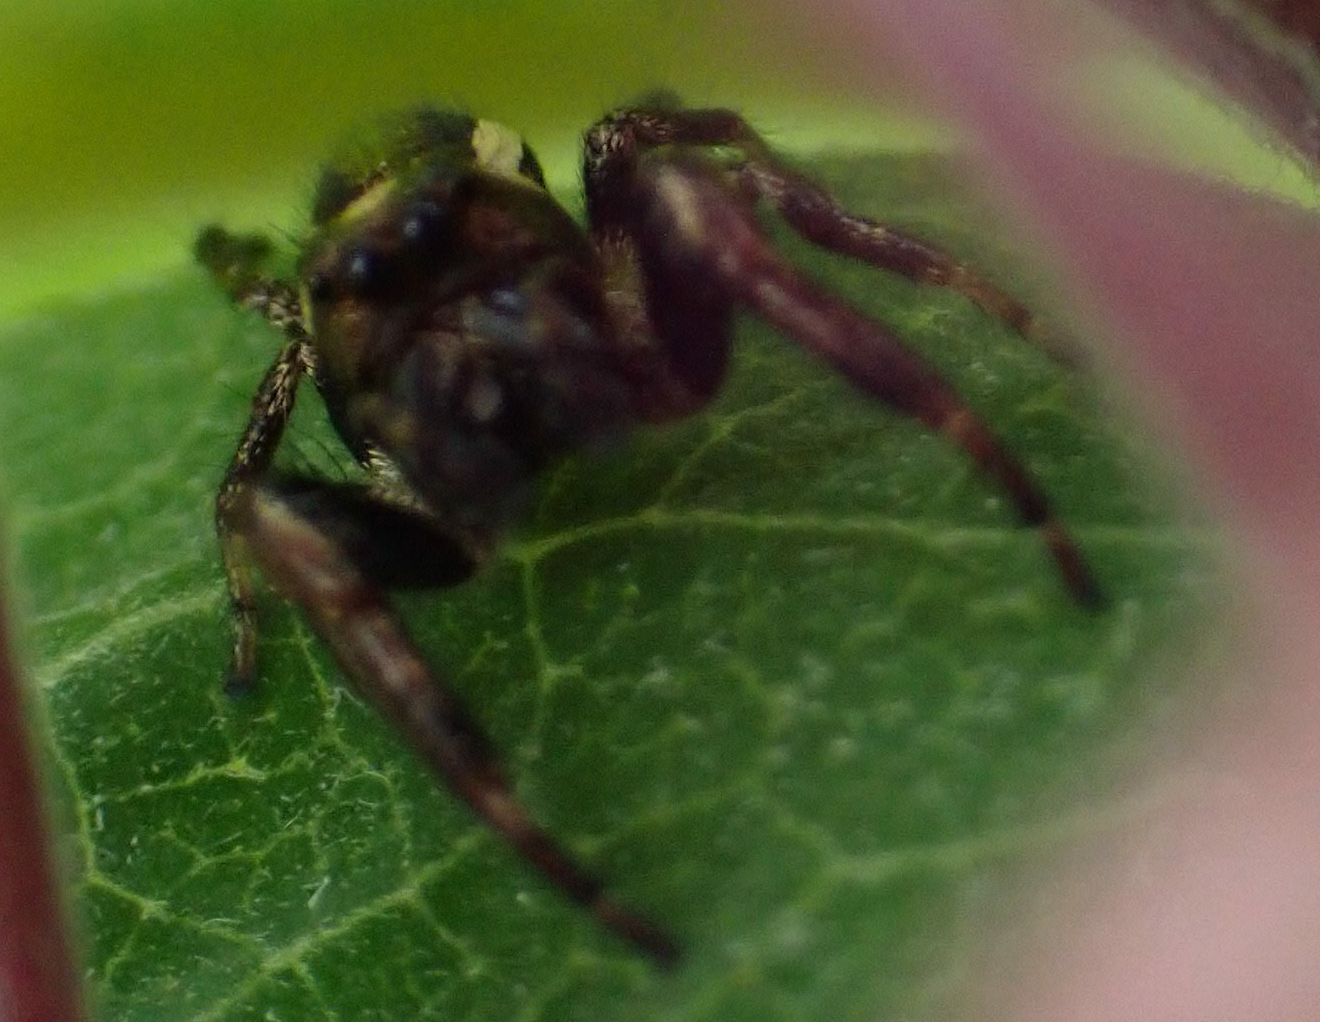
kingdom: Animalia
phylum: Arthropoda
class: Arachnida
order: Araneae
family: Salticidae
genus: Eris
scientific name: Eris militaris
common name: Bronze jumper
